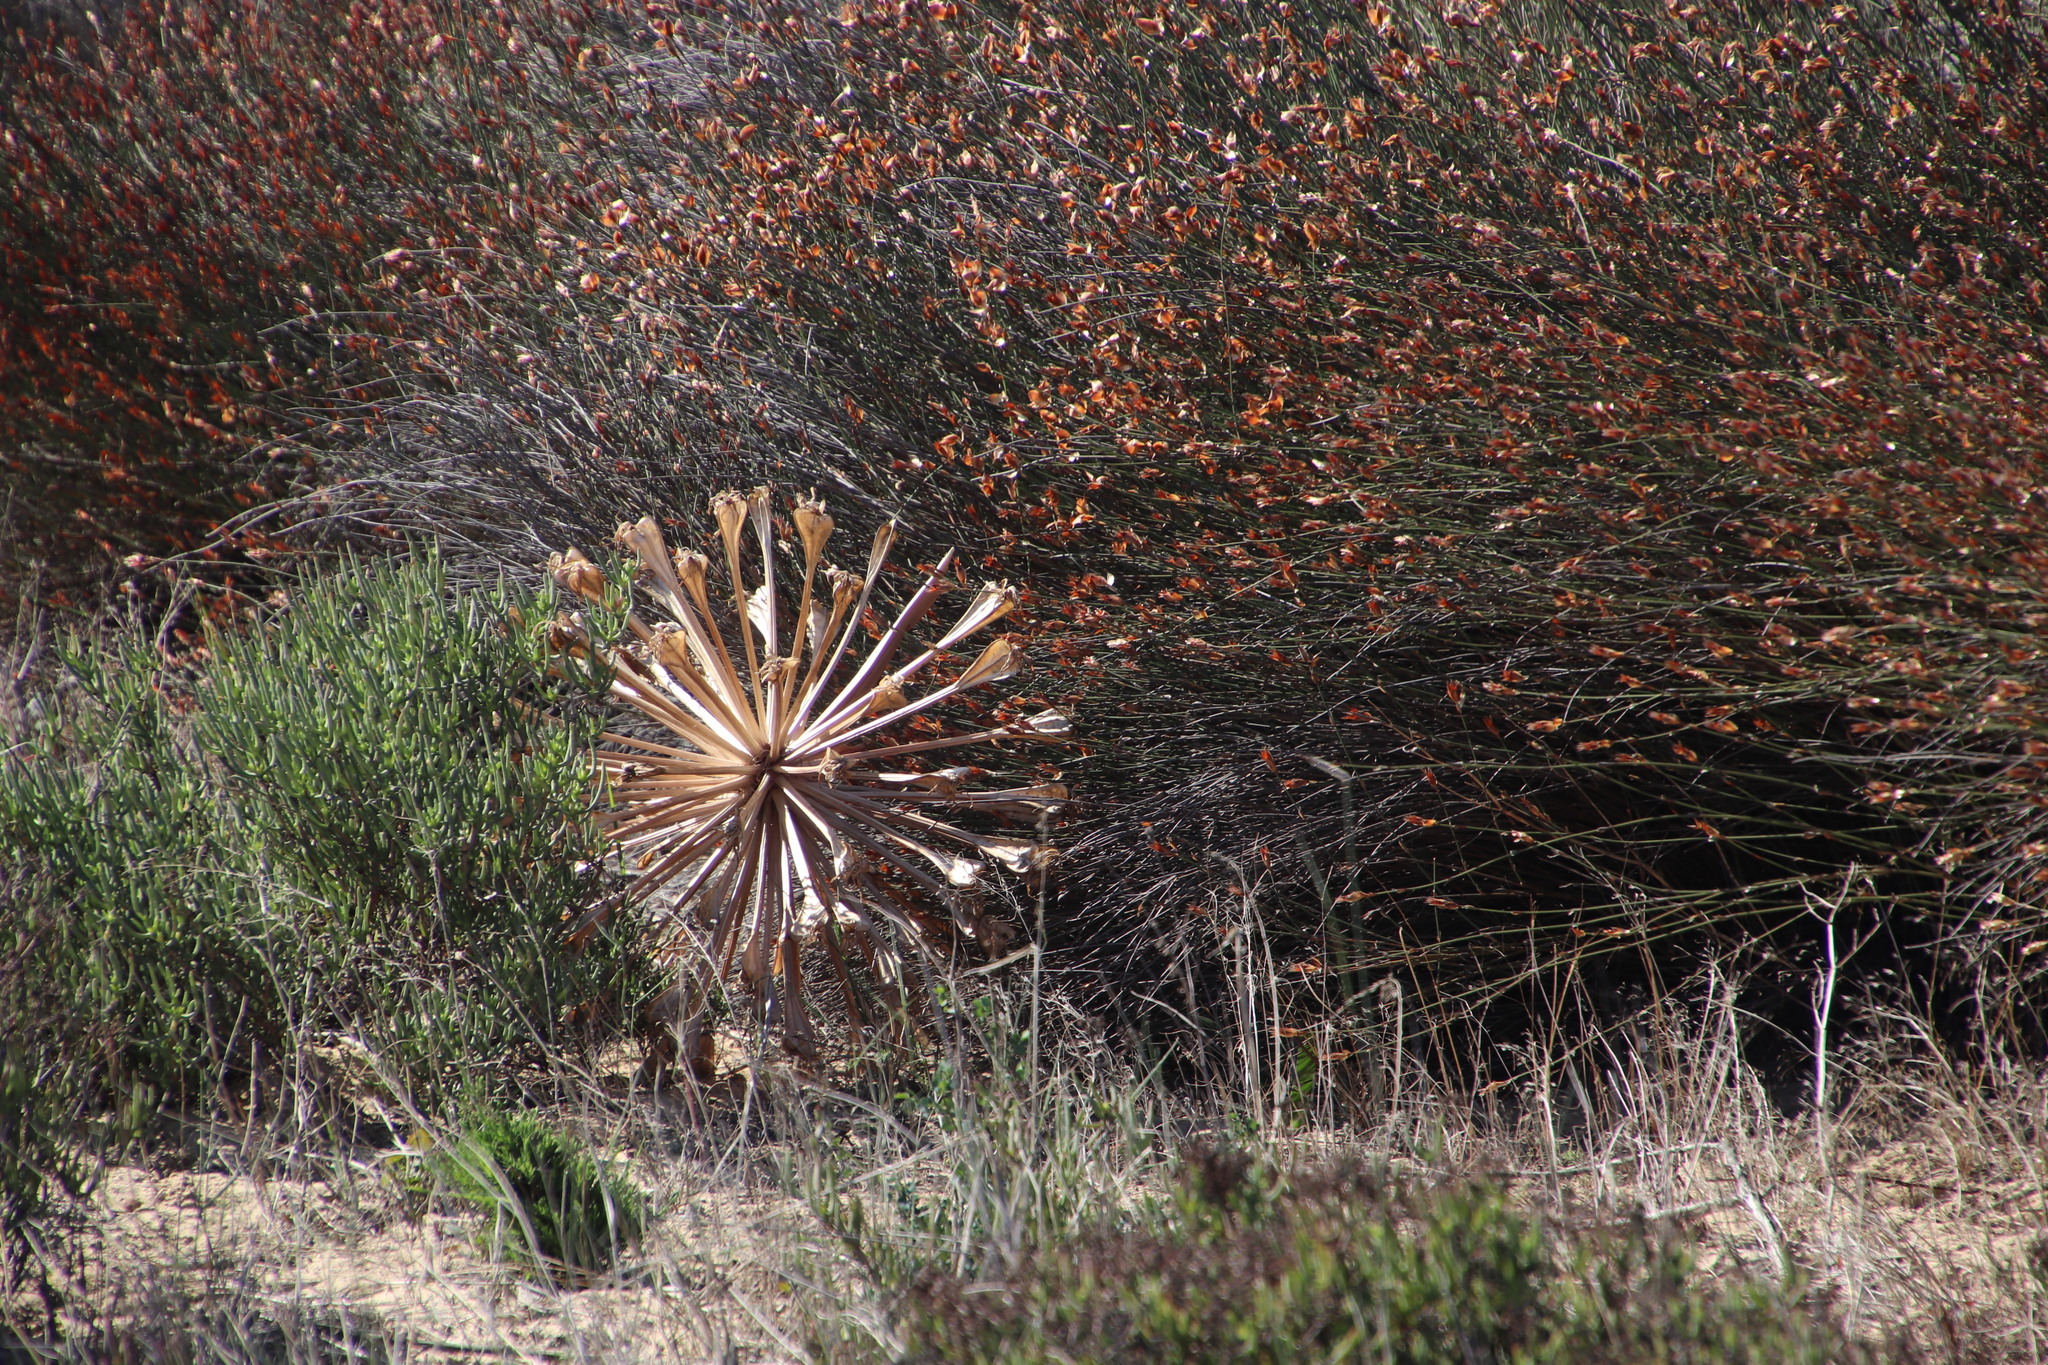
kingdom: Plantae
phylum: Tracheophyta
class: Liliopsida
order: Asparagales
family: Amaryllidaceae
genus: Brunsvigia
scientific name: Brunsvigia orientalis
